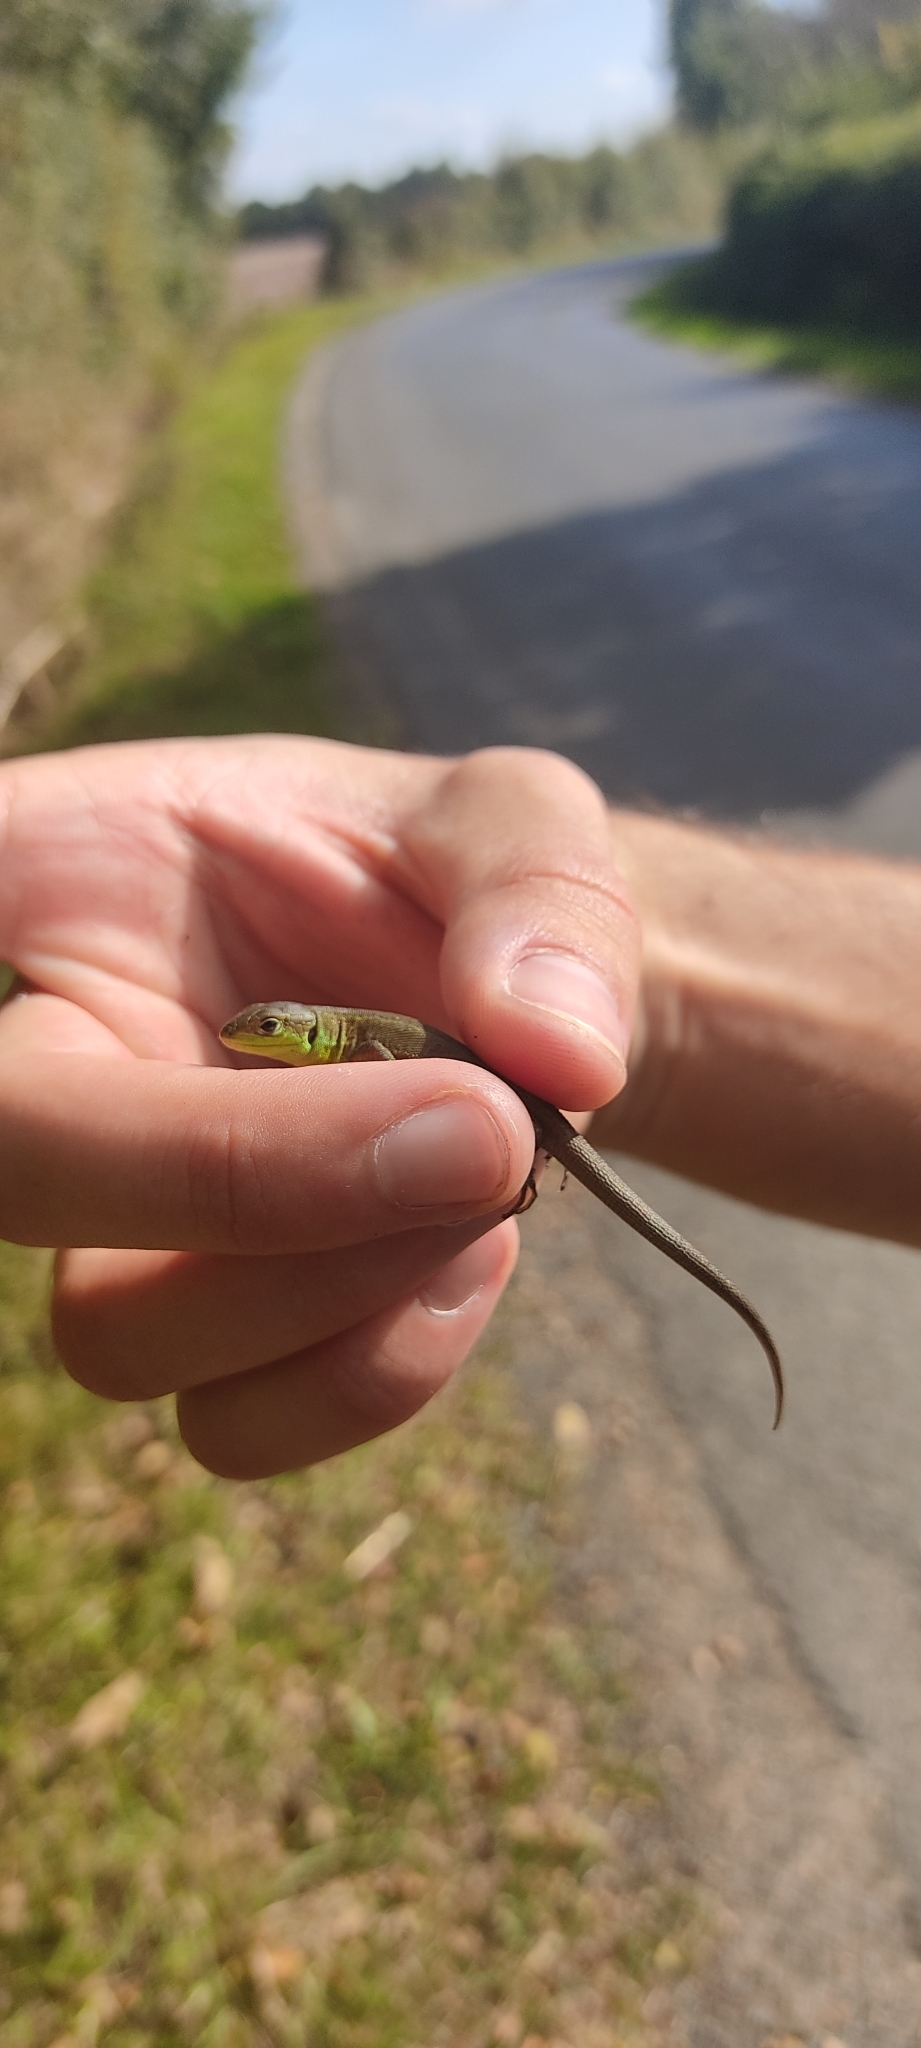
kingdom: Animalia
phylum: Chordata
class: Squamata
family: Lacertidae
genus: Lacerta
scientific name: Lacerta bilineata
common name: Western green lizard
